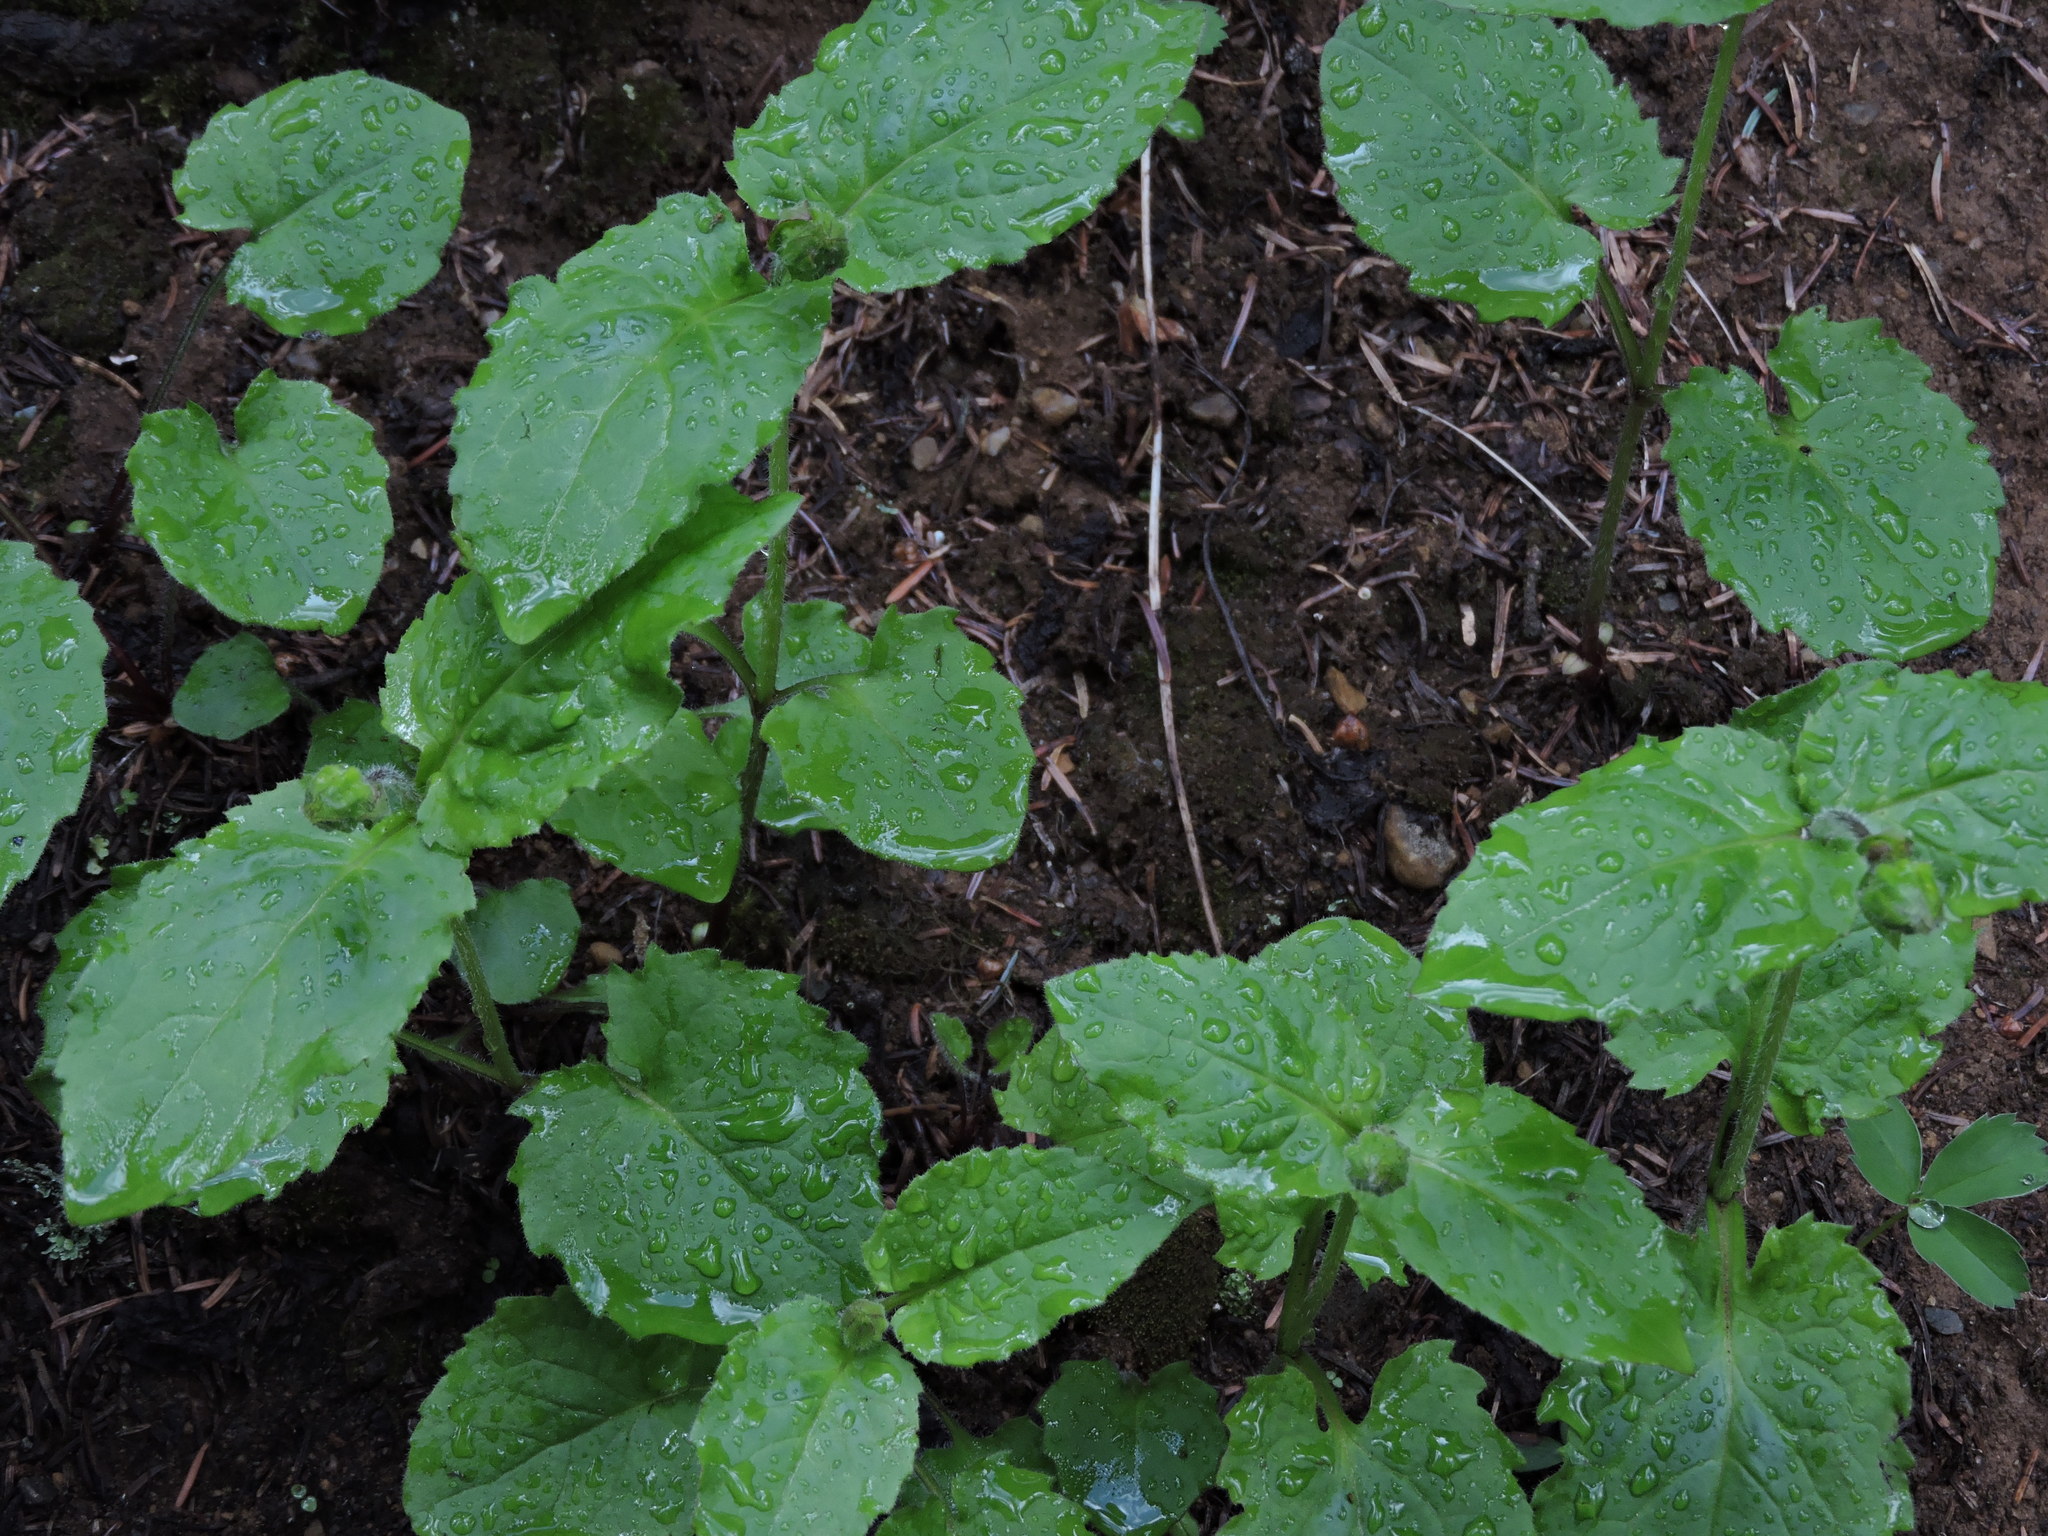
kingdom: Plantae
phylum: Tracheophyta
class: Magnoliopsida
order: Asterales
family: Asteraceae
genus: Arnica
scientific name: Arnica cordifolia
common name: Heart-leaf arnica
